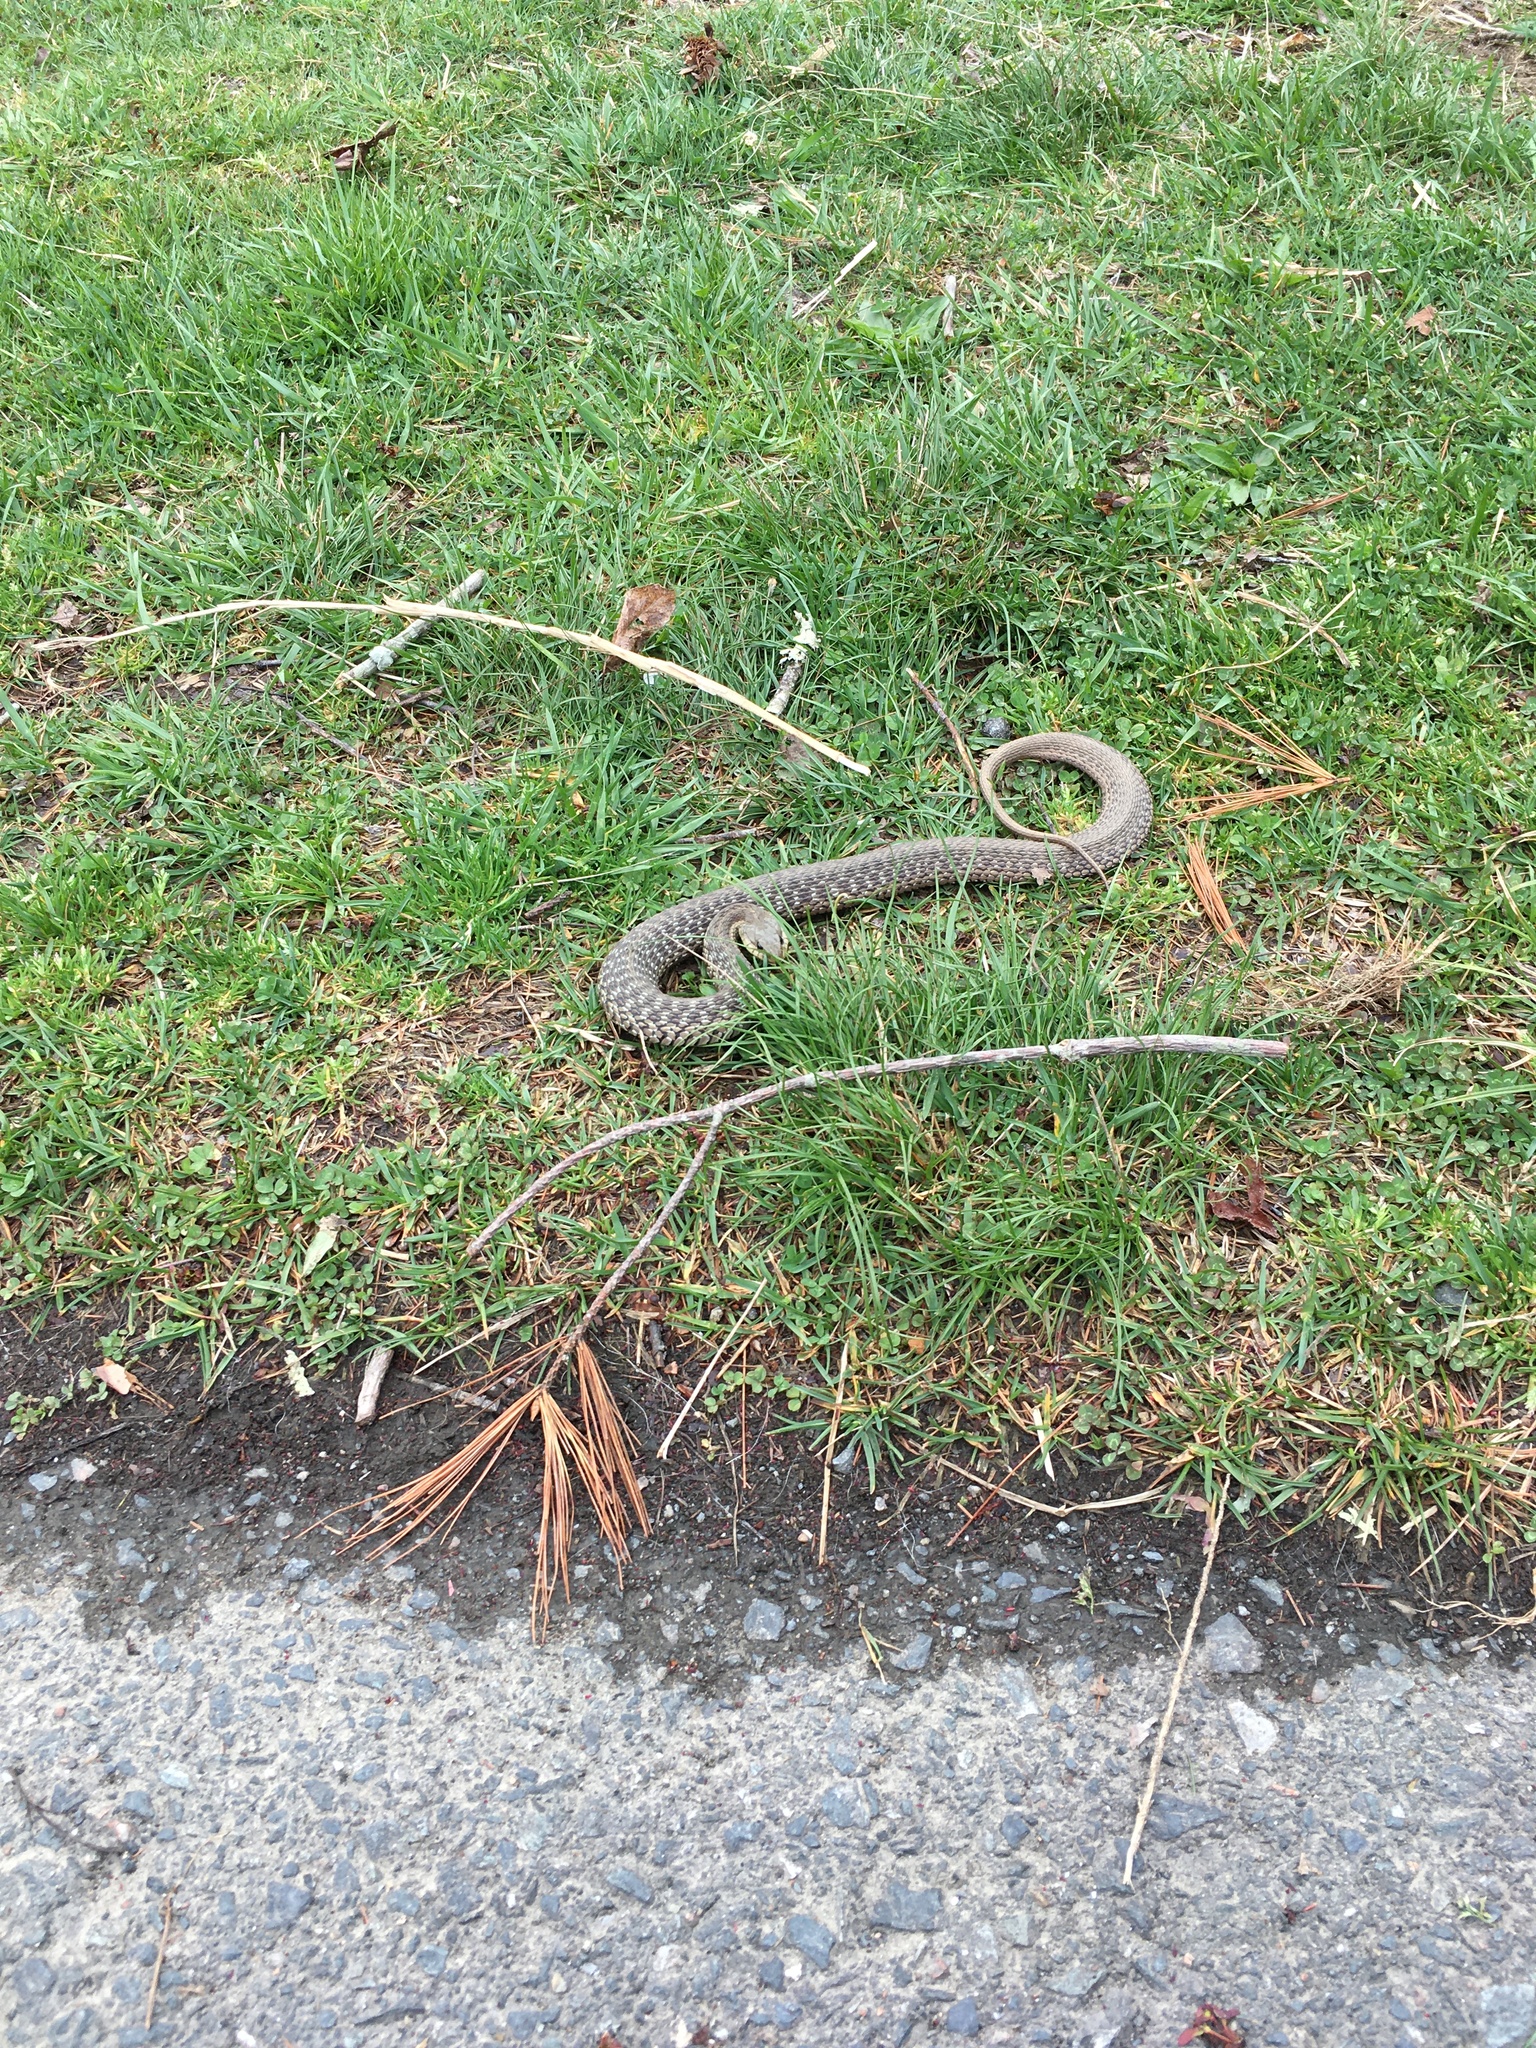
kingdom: Animalia
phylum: Chordata
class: Squamata
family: Colubridae
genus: Thamnophis
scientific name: Thamnophis sirtalis
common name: Common garter snake
